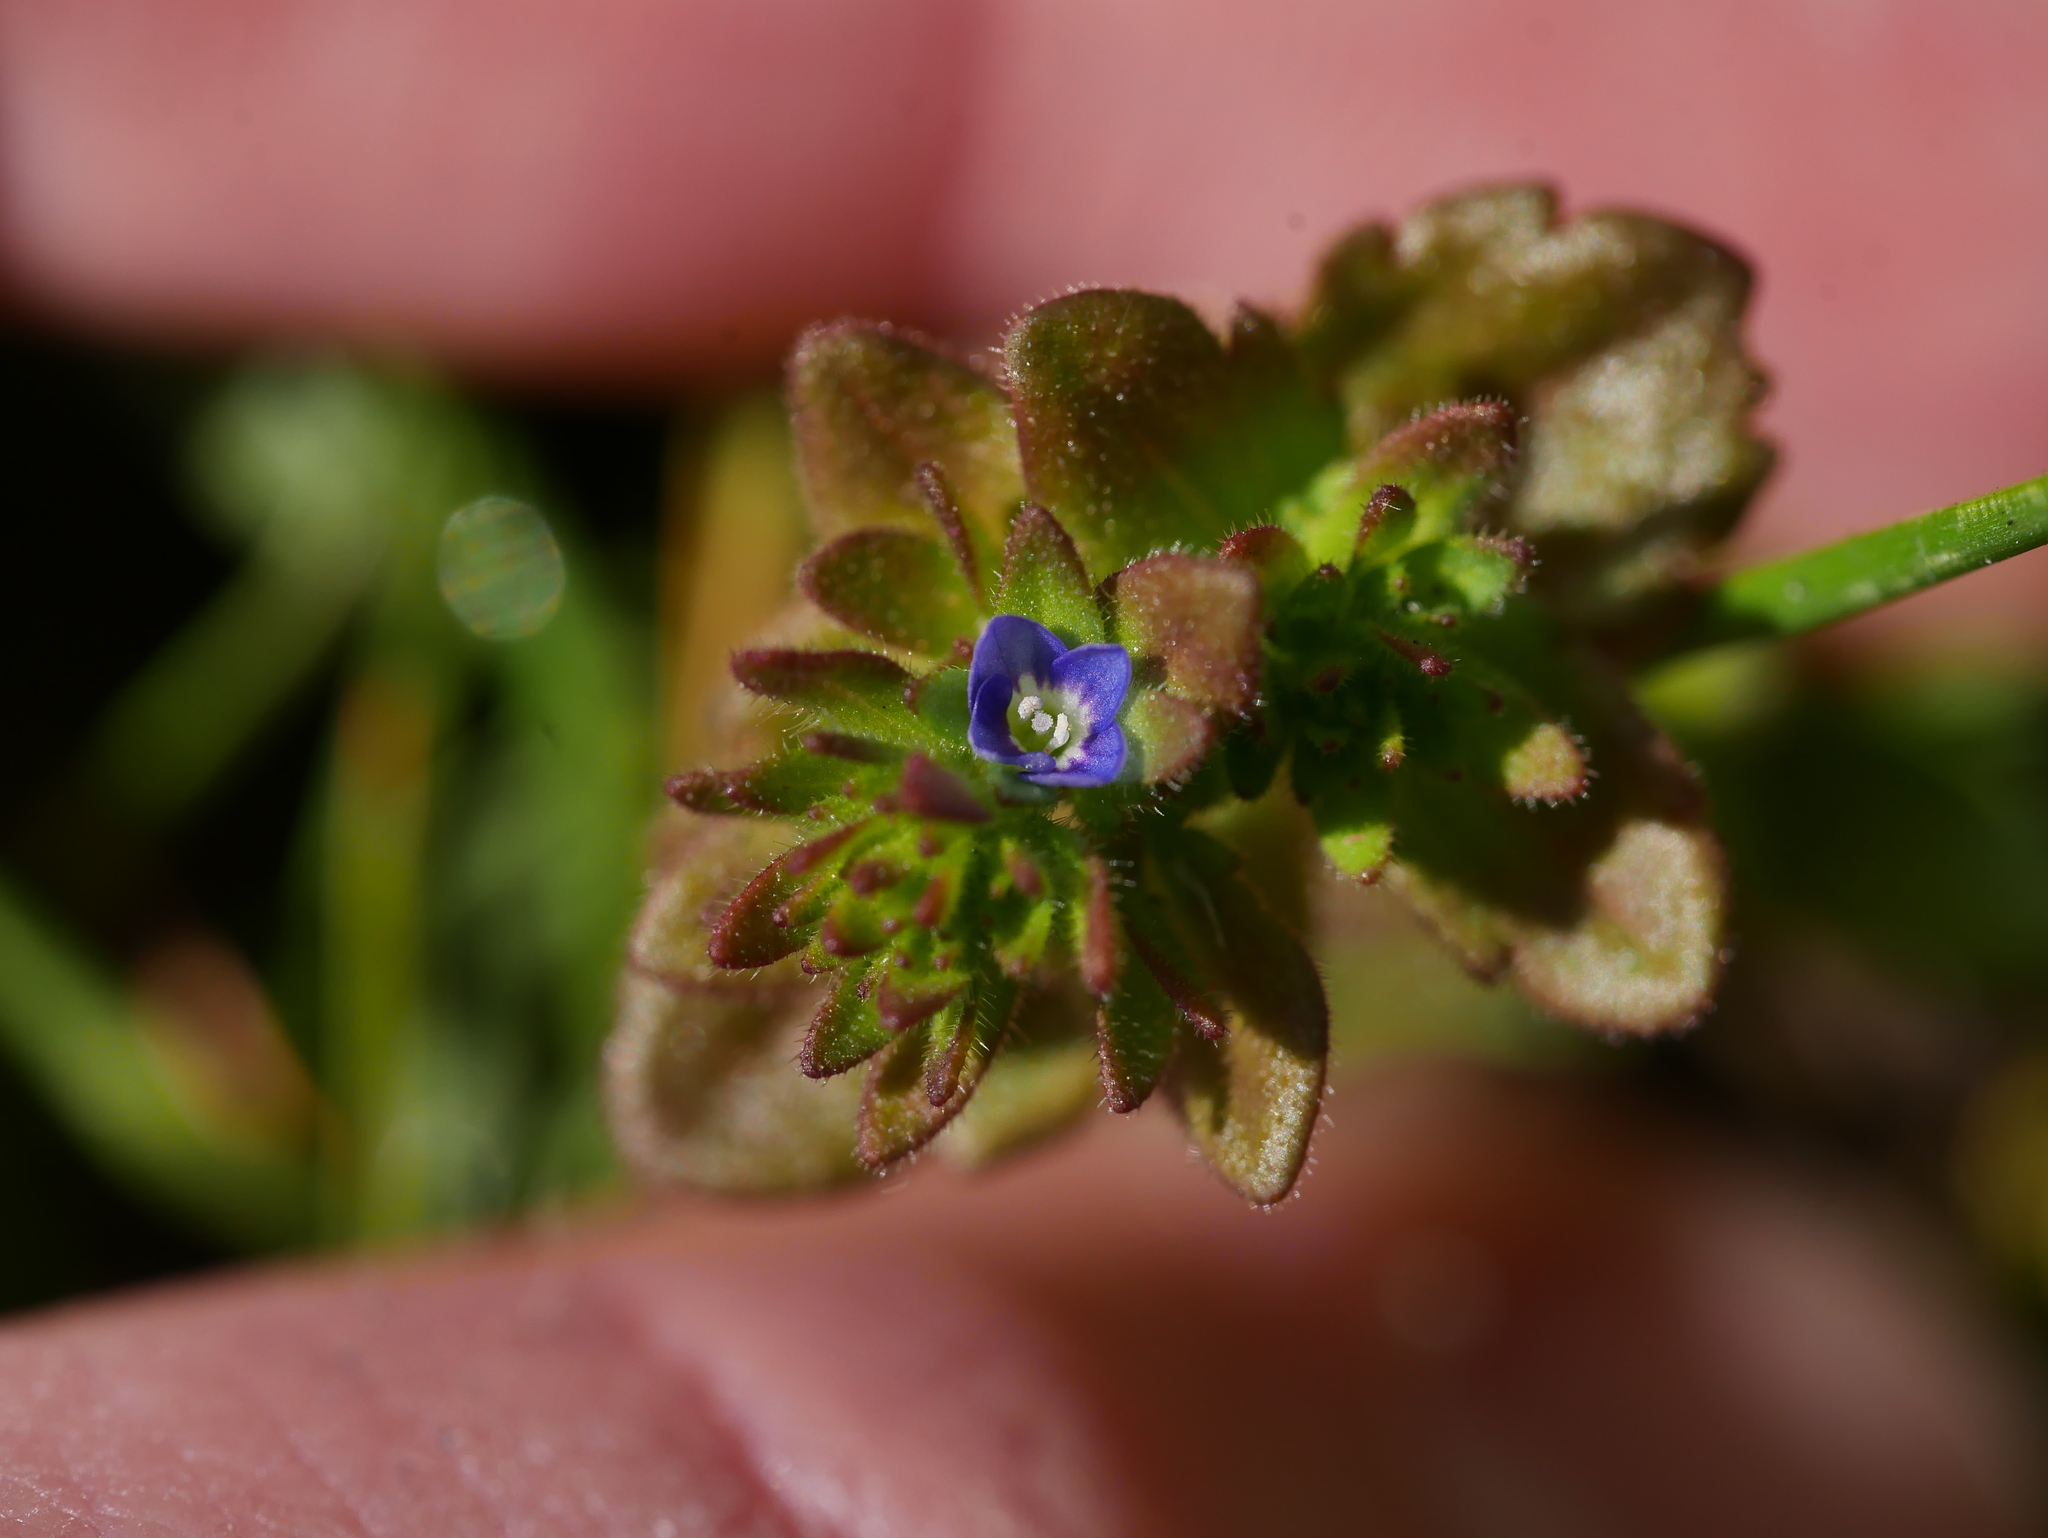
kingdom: Plantae
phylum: Tracheophyta
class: Magnoliopsida
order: Lamiales
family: Plantaginaceae
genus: Veronica
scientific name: Veronica arvensis
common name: Corn speedwell
